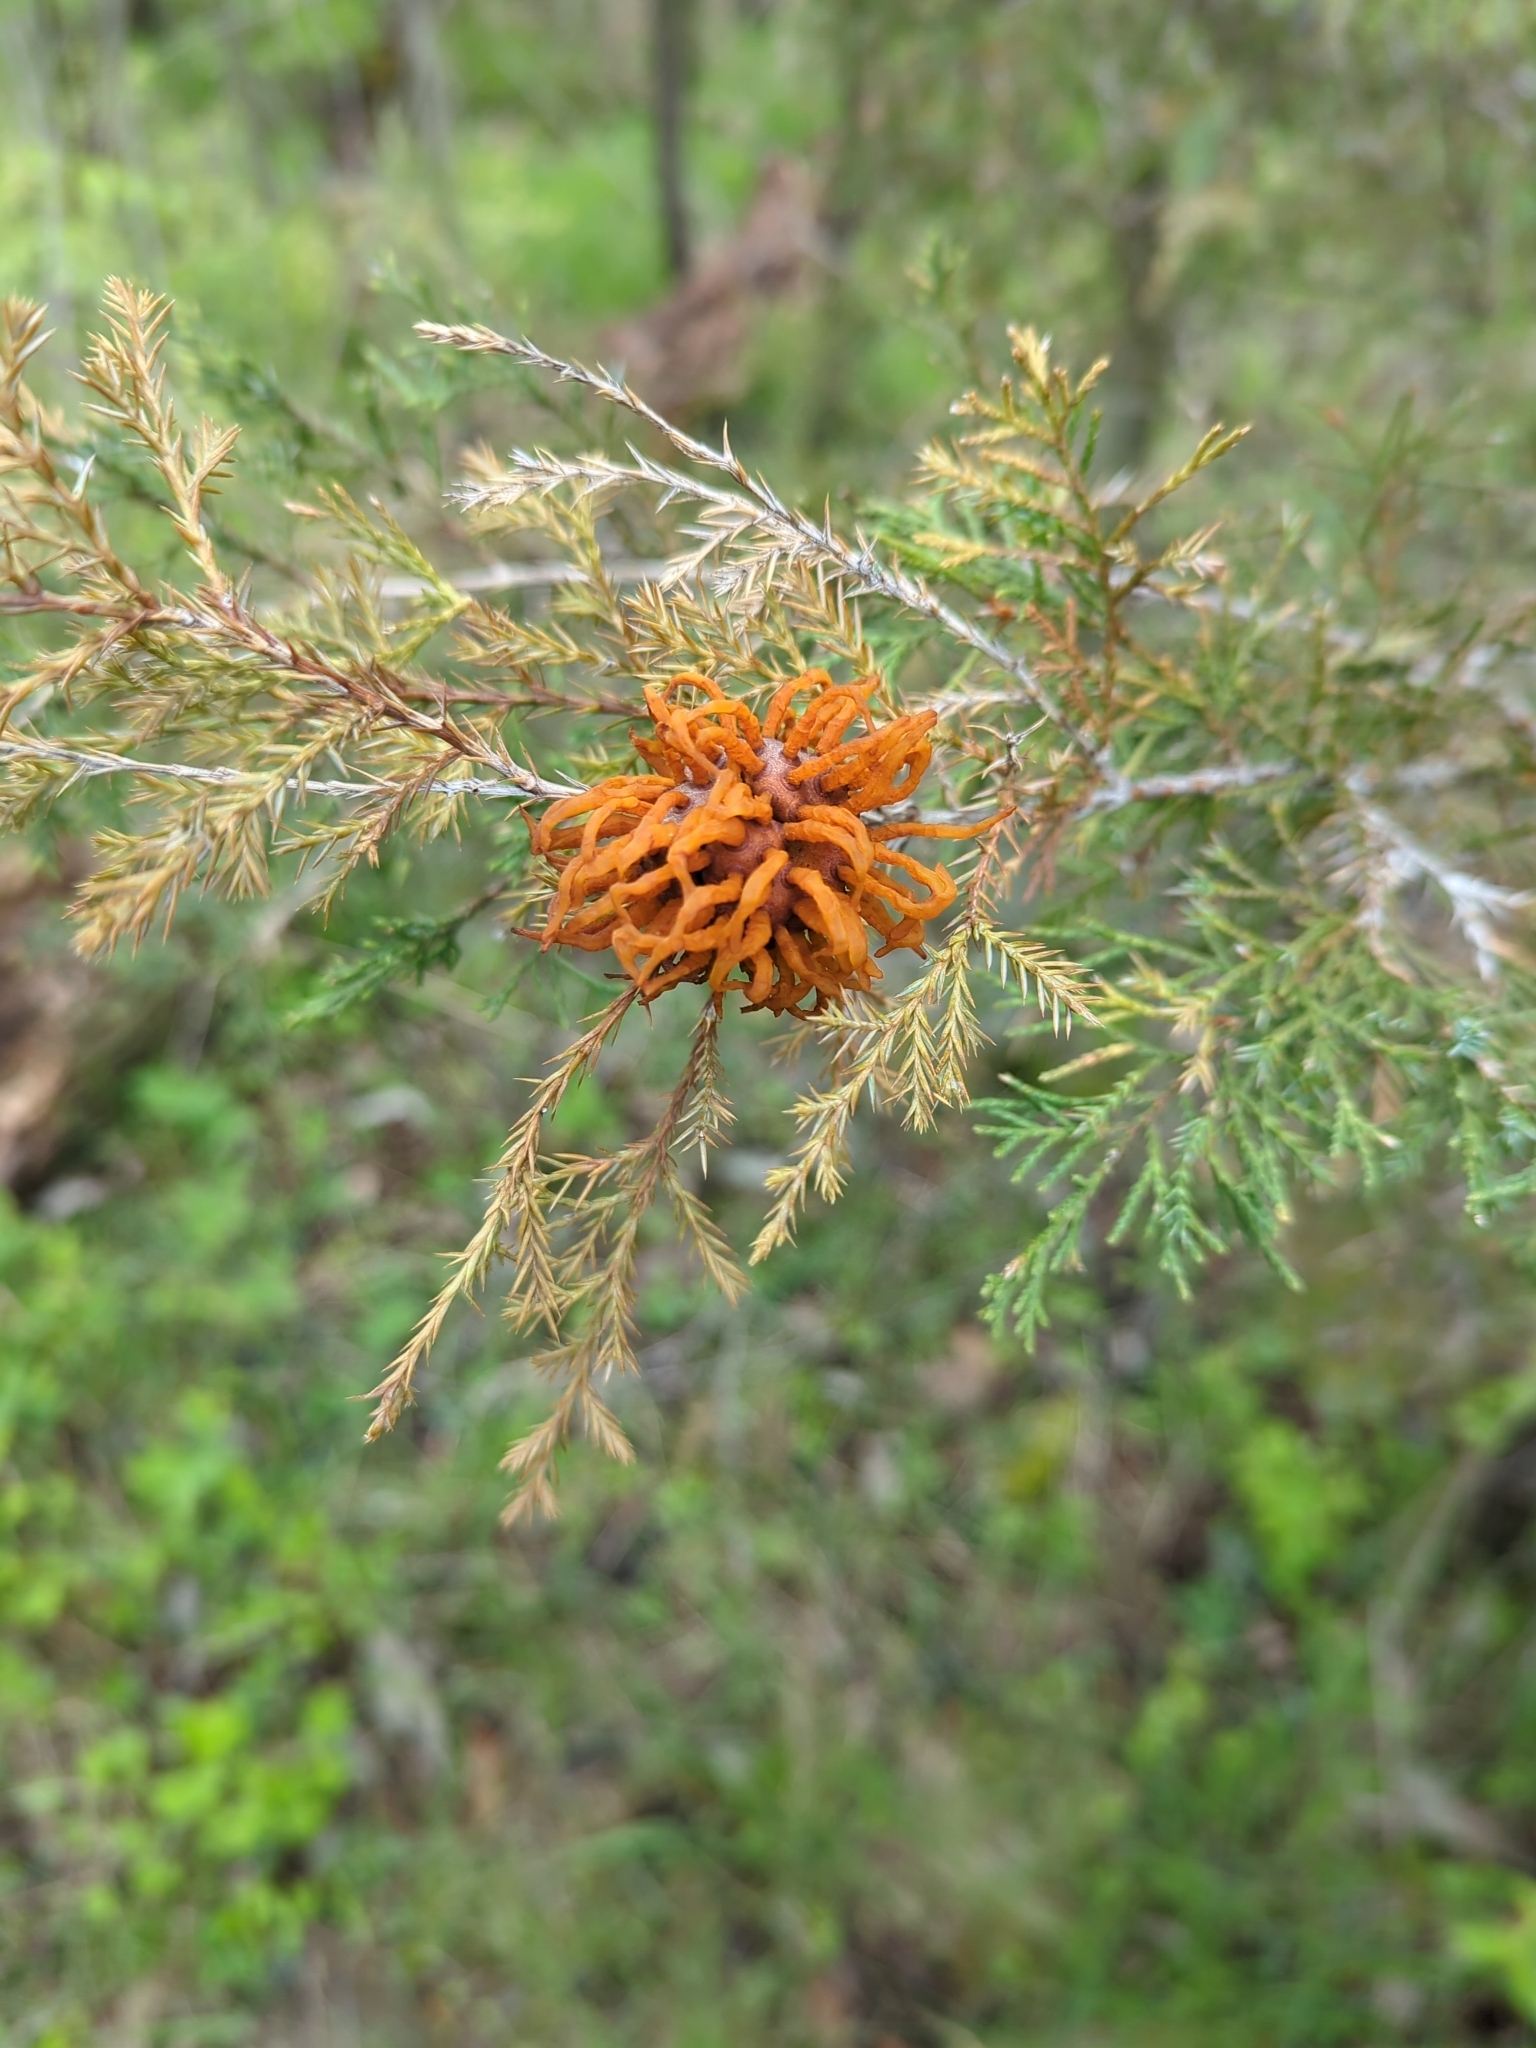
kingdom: Fungi
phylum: Basidiomycota
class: Pucciniomycetes
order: Pucciniales
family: Gymnosporangiaceae
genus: Gymnosporangium
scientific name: Gymnosporangium juniperi-virginianae
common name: Juniper-apple rust
